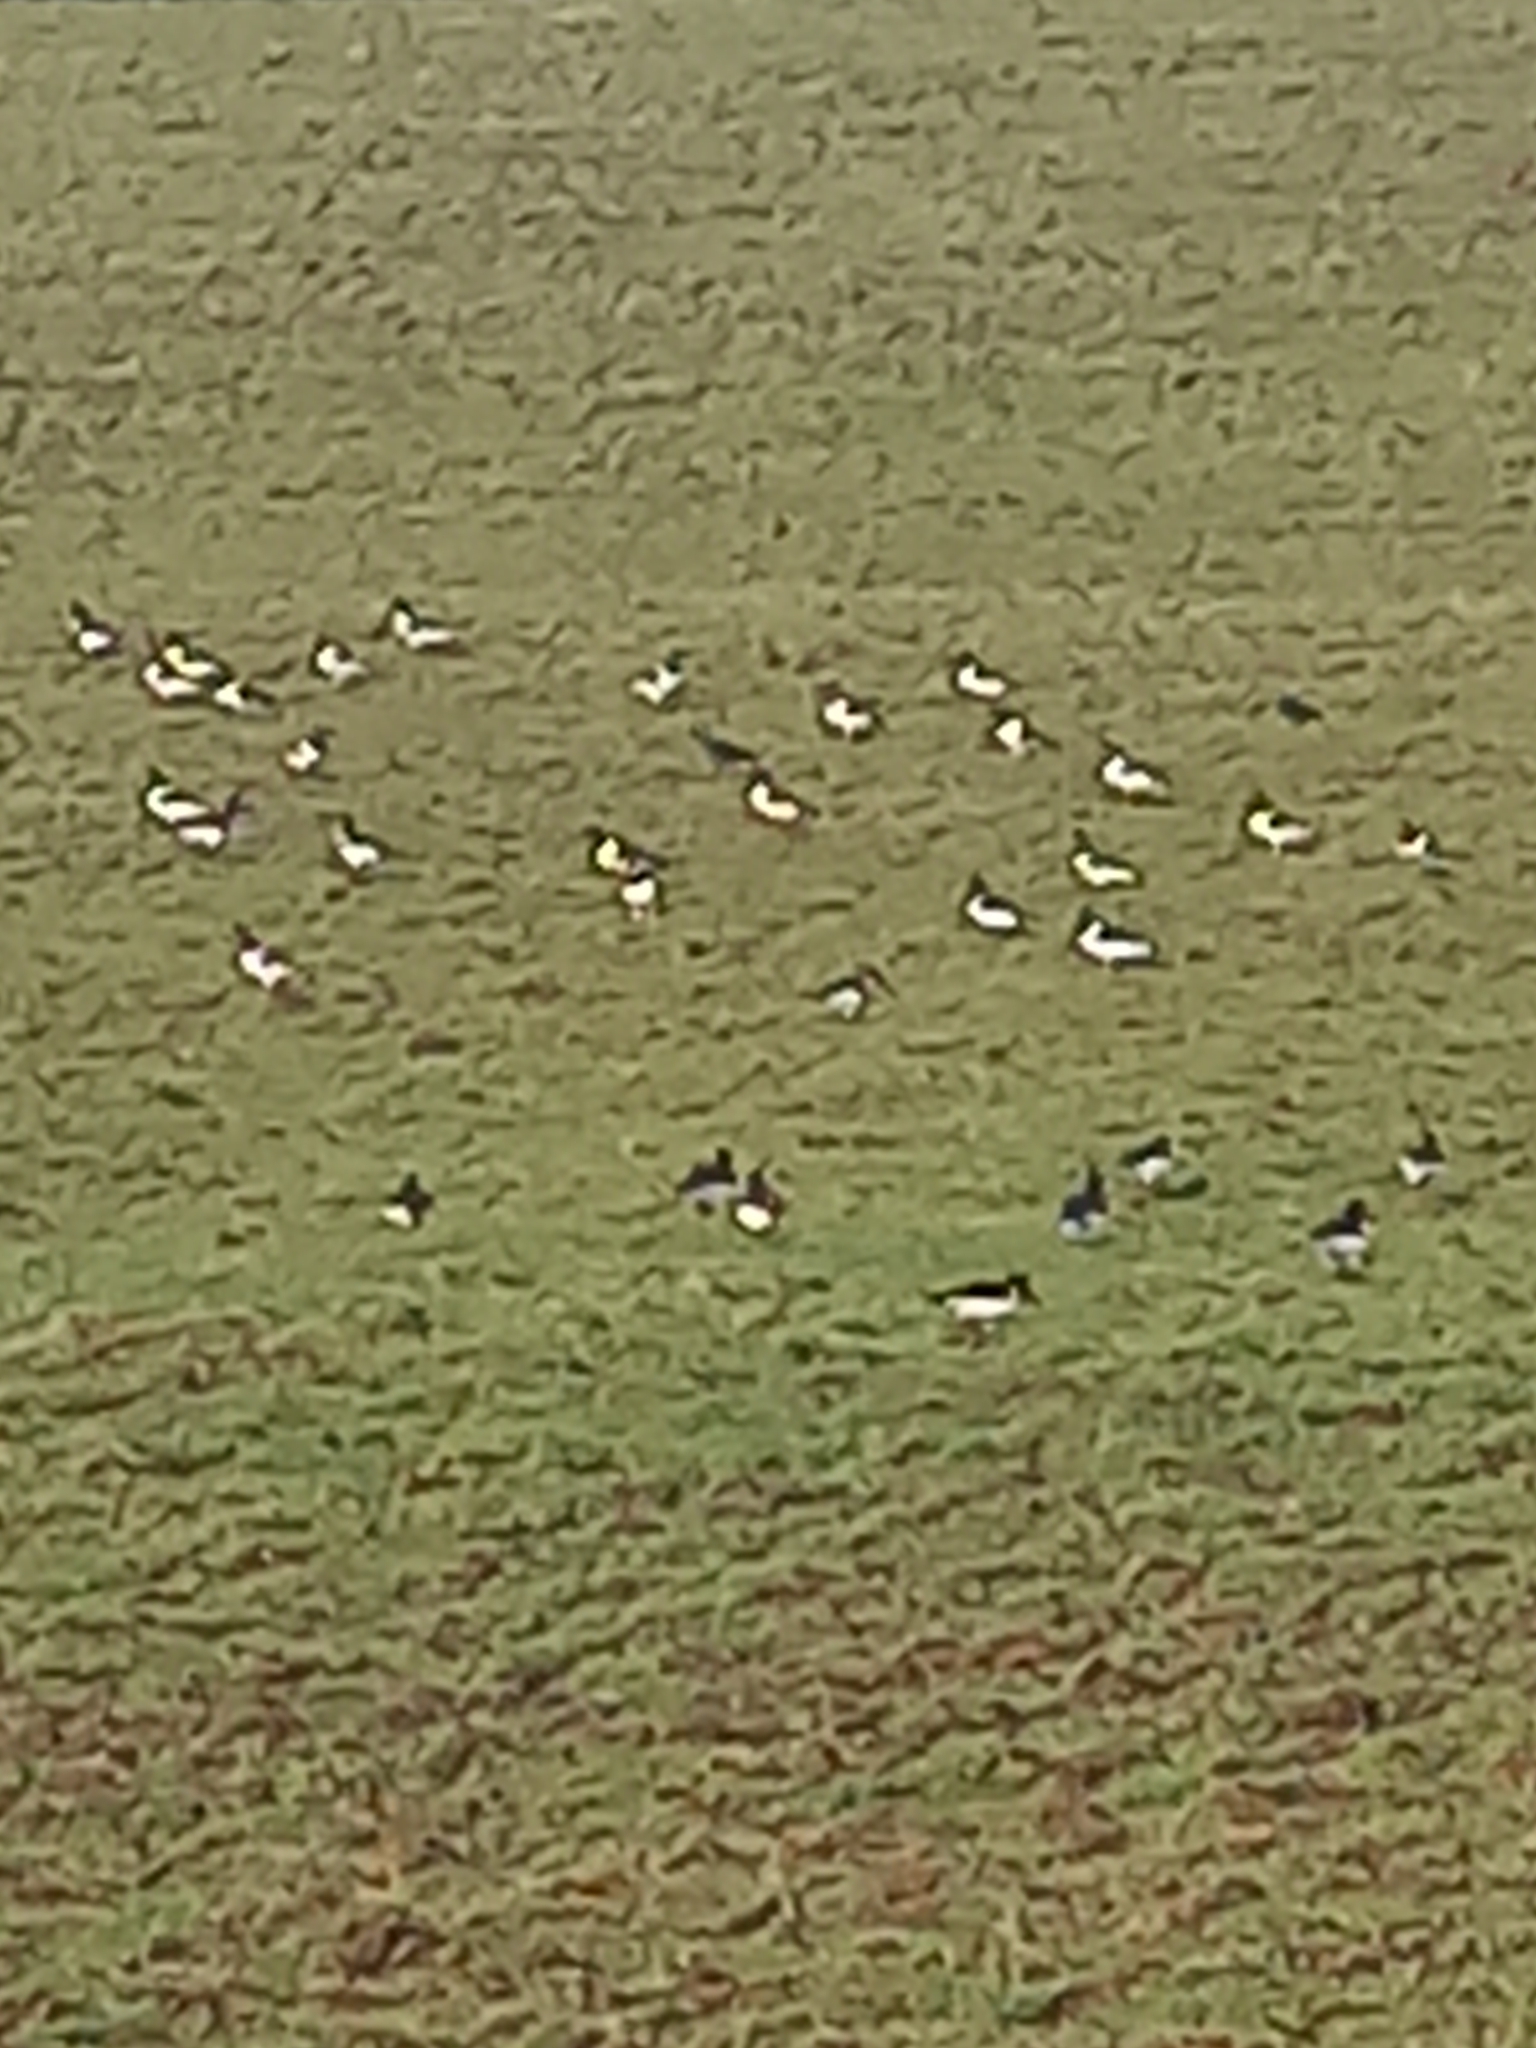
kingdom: Animalia
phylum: Chordata
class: Aves
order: Charadriiformes
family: Haematopodidae
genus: Haematopus
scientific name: Haematopus ostralegus
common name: Eurasian oystercatcher
